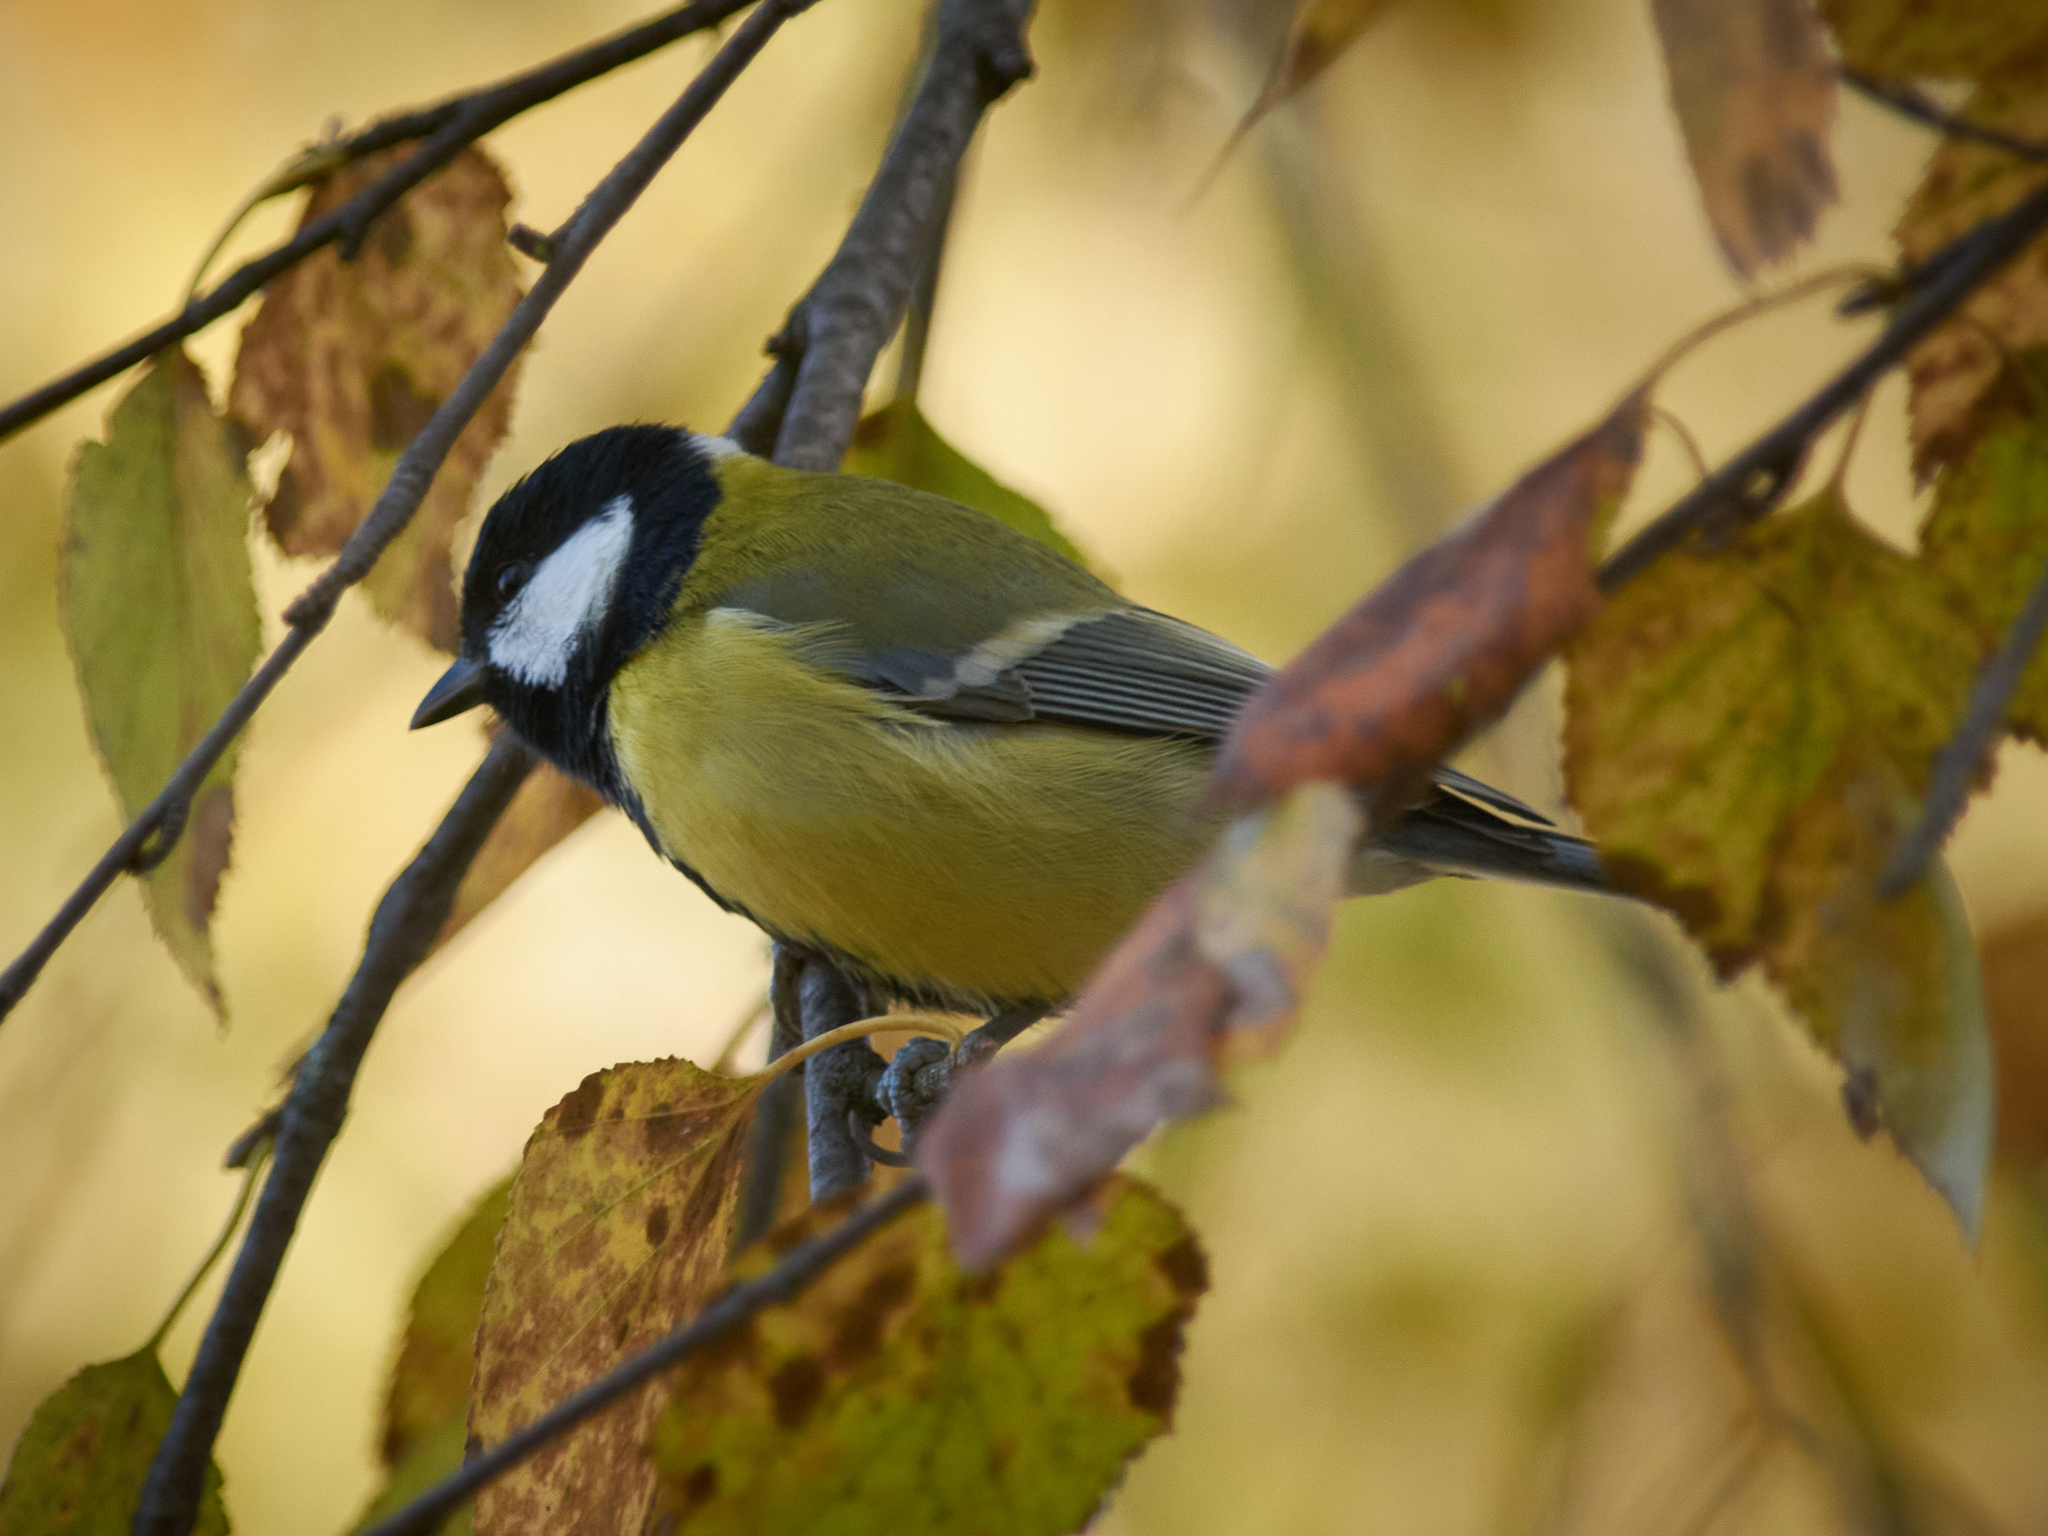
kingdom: Animalia
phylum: Chordata
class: Aves
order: Passeriformes
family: Paridae
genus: Parus
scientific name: Parus major
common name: Great tit
